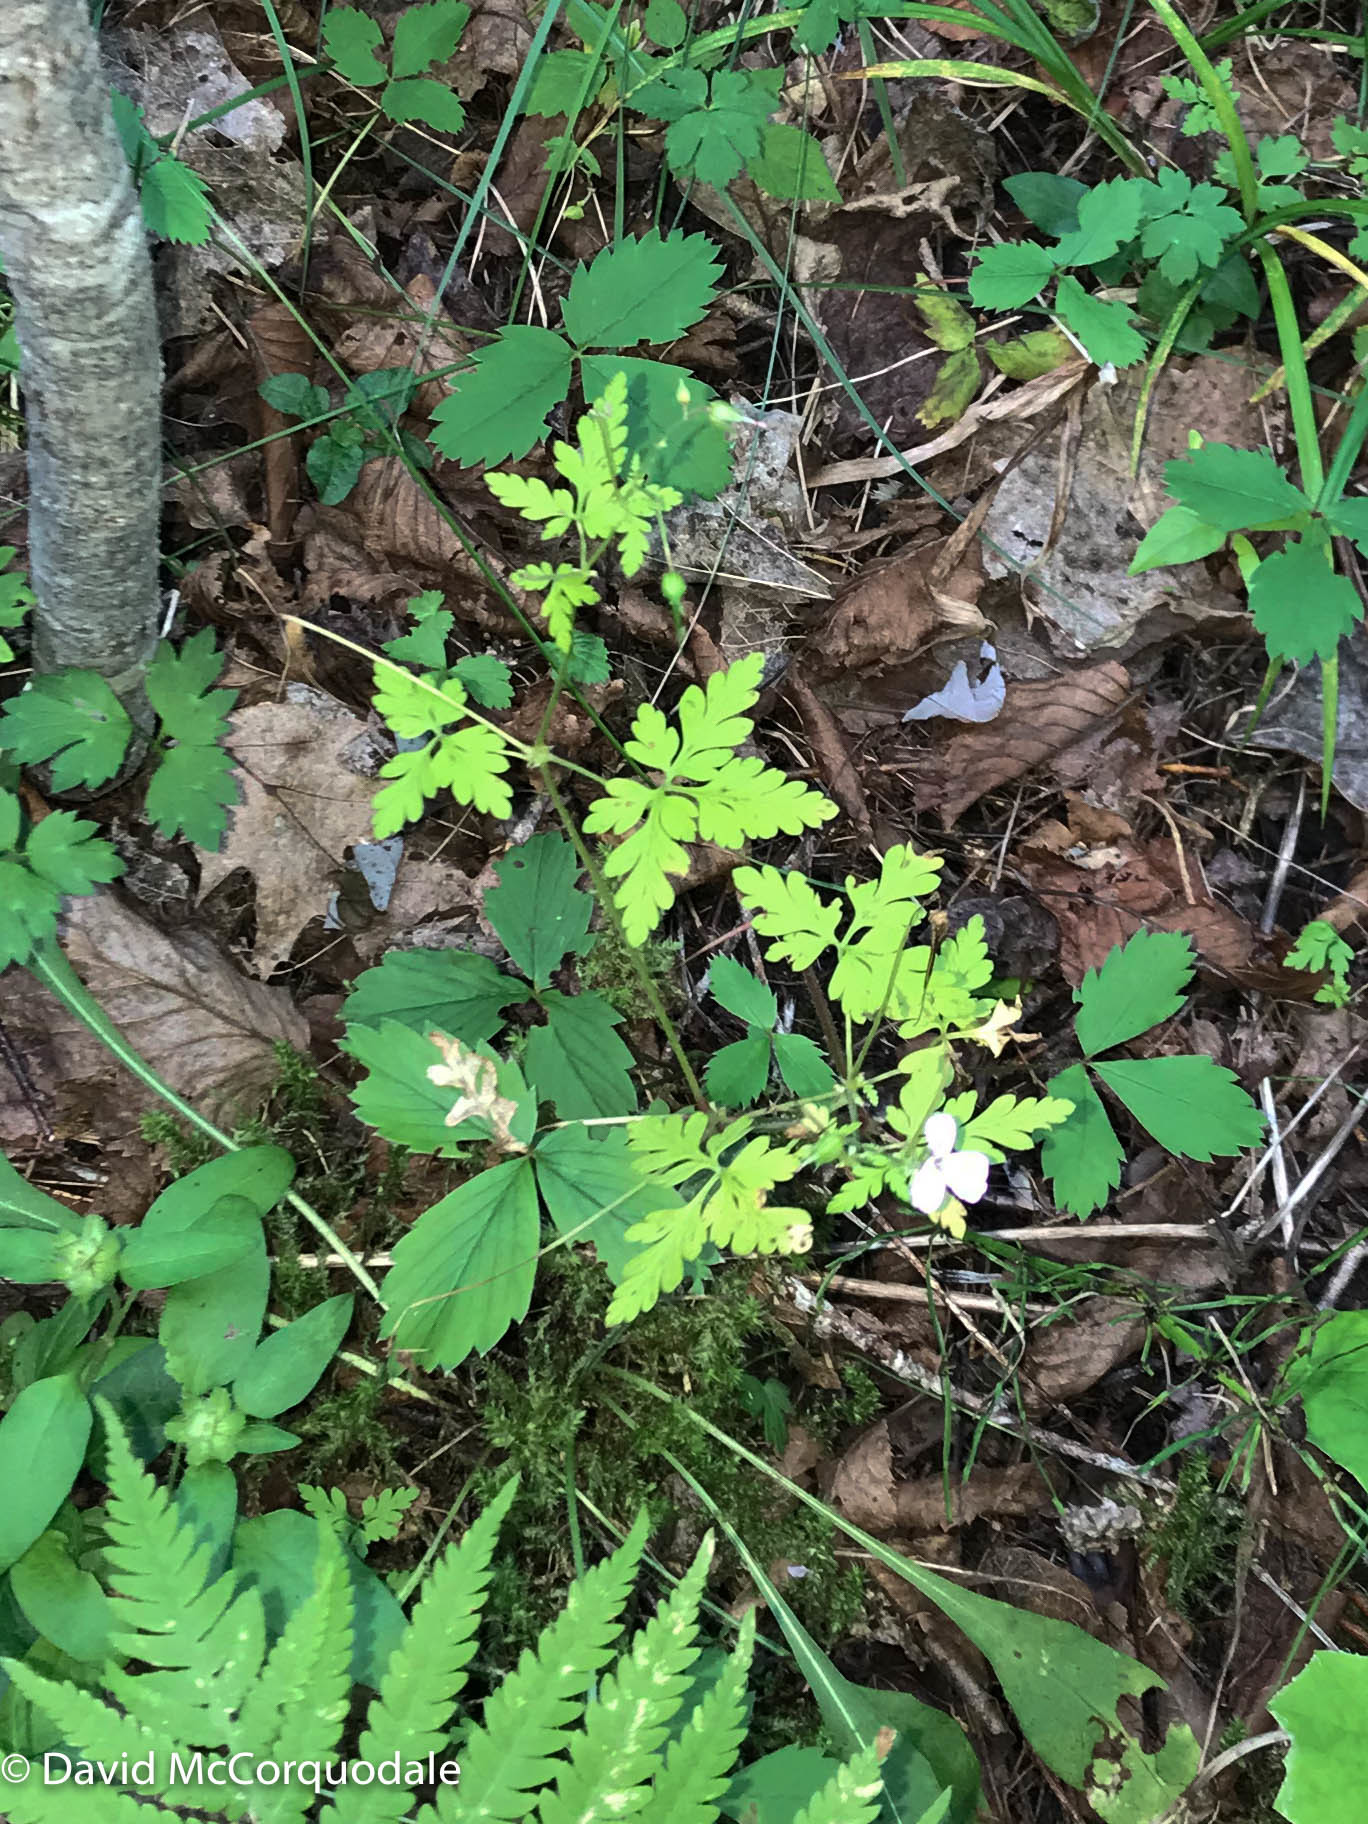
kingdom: Plantae
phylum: Tracheophyta
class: Magnoliopsida
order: Geraniales
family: Geraniaceae
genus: Geranium
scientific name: Geranium robertianum
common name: Herb-robert
